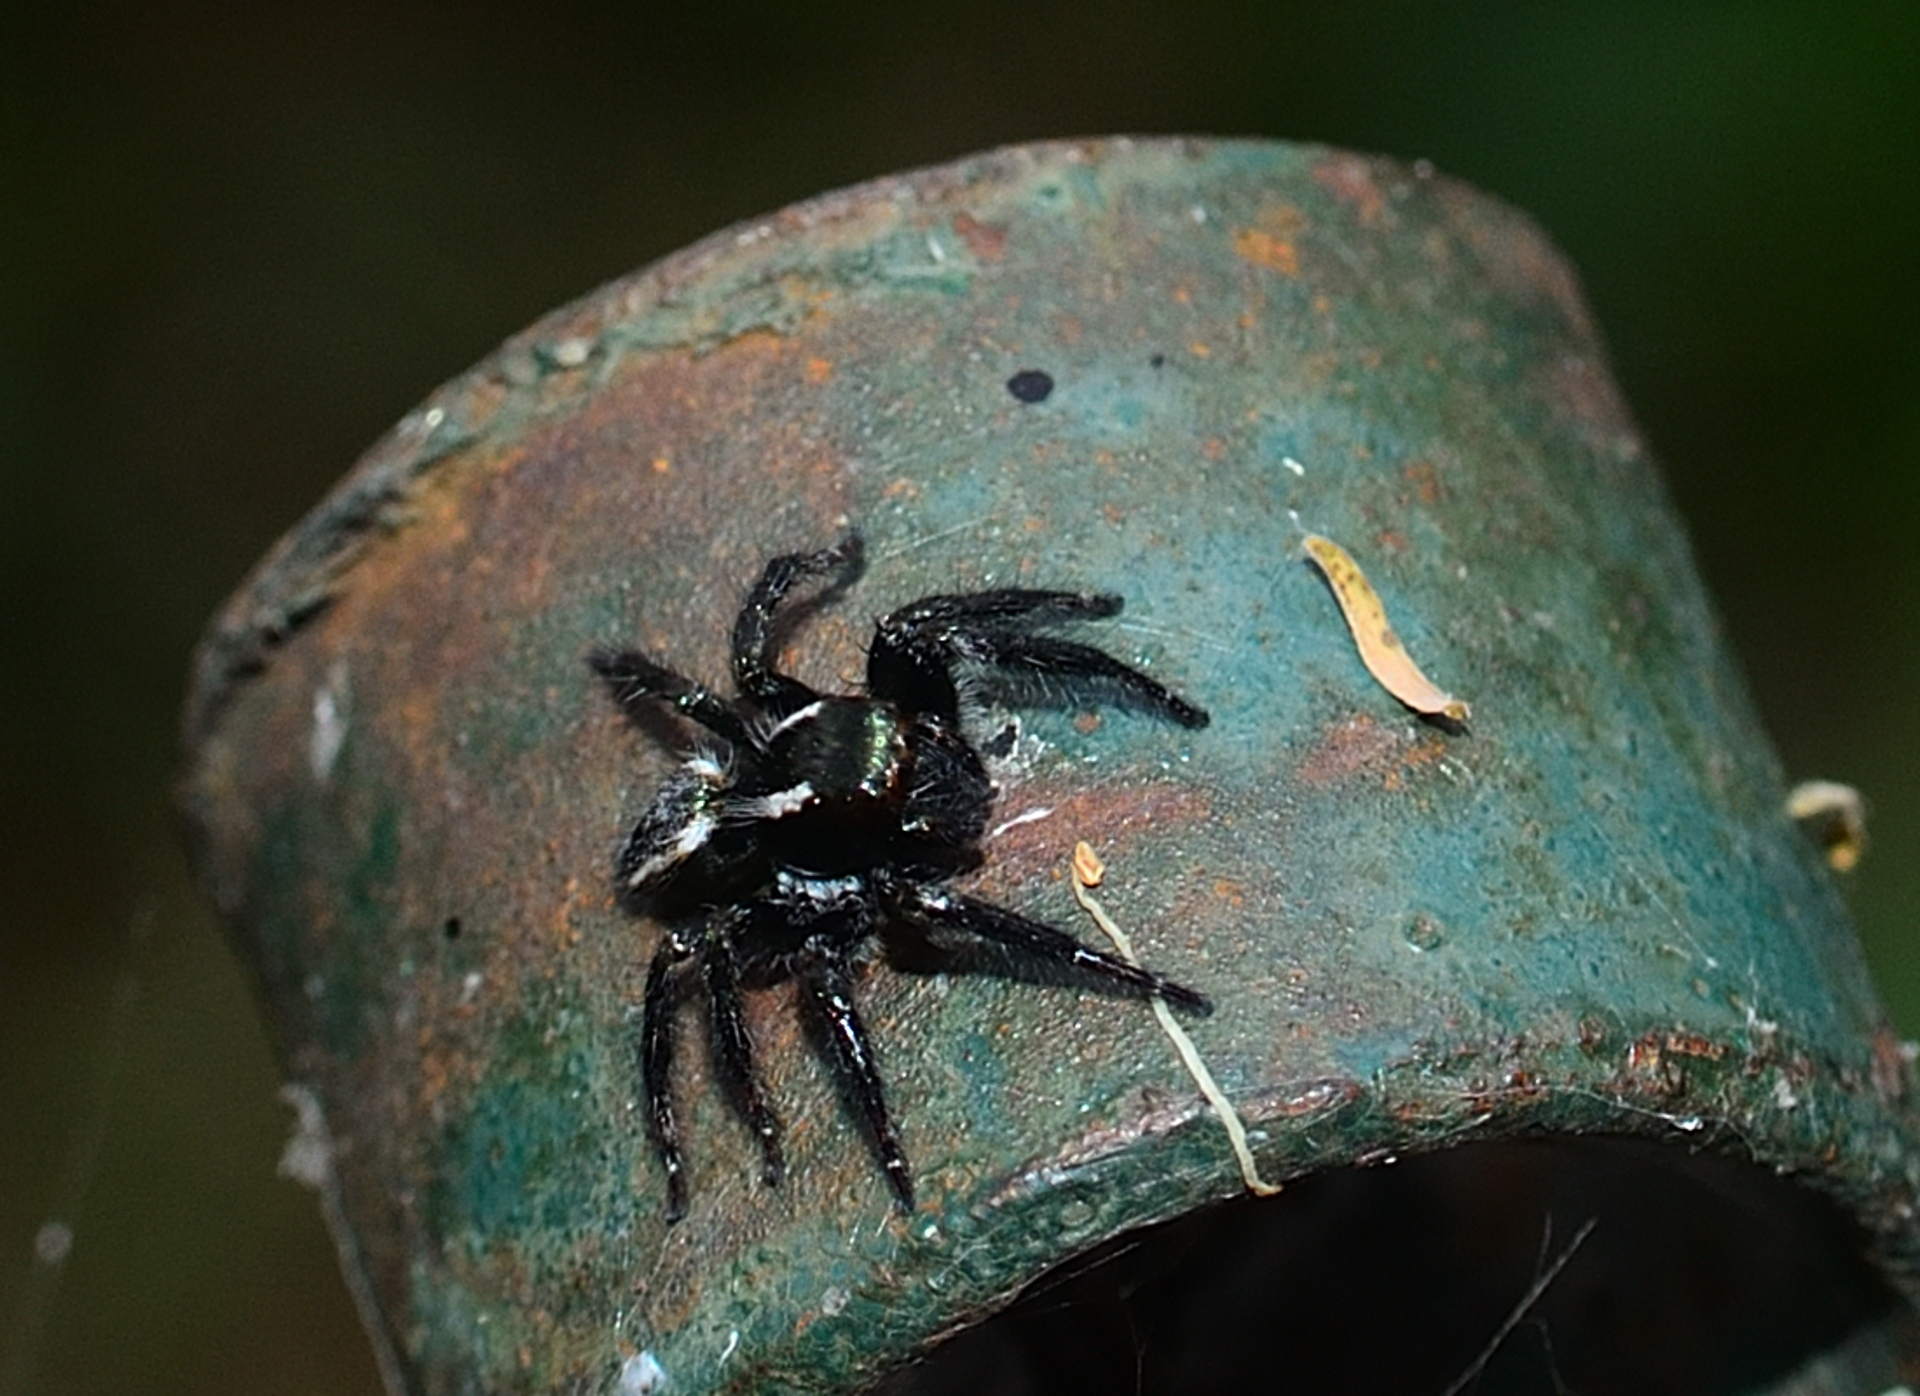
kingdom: Animalia
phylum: Arthropoda
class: Arachnida
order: Araneae
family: Salticidae
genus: Carrhotus
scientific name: Carrhotus viduus
